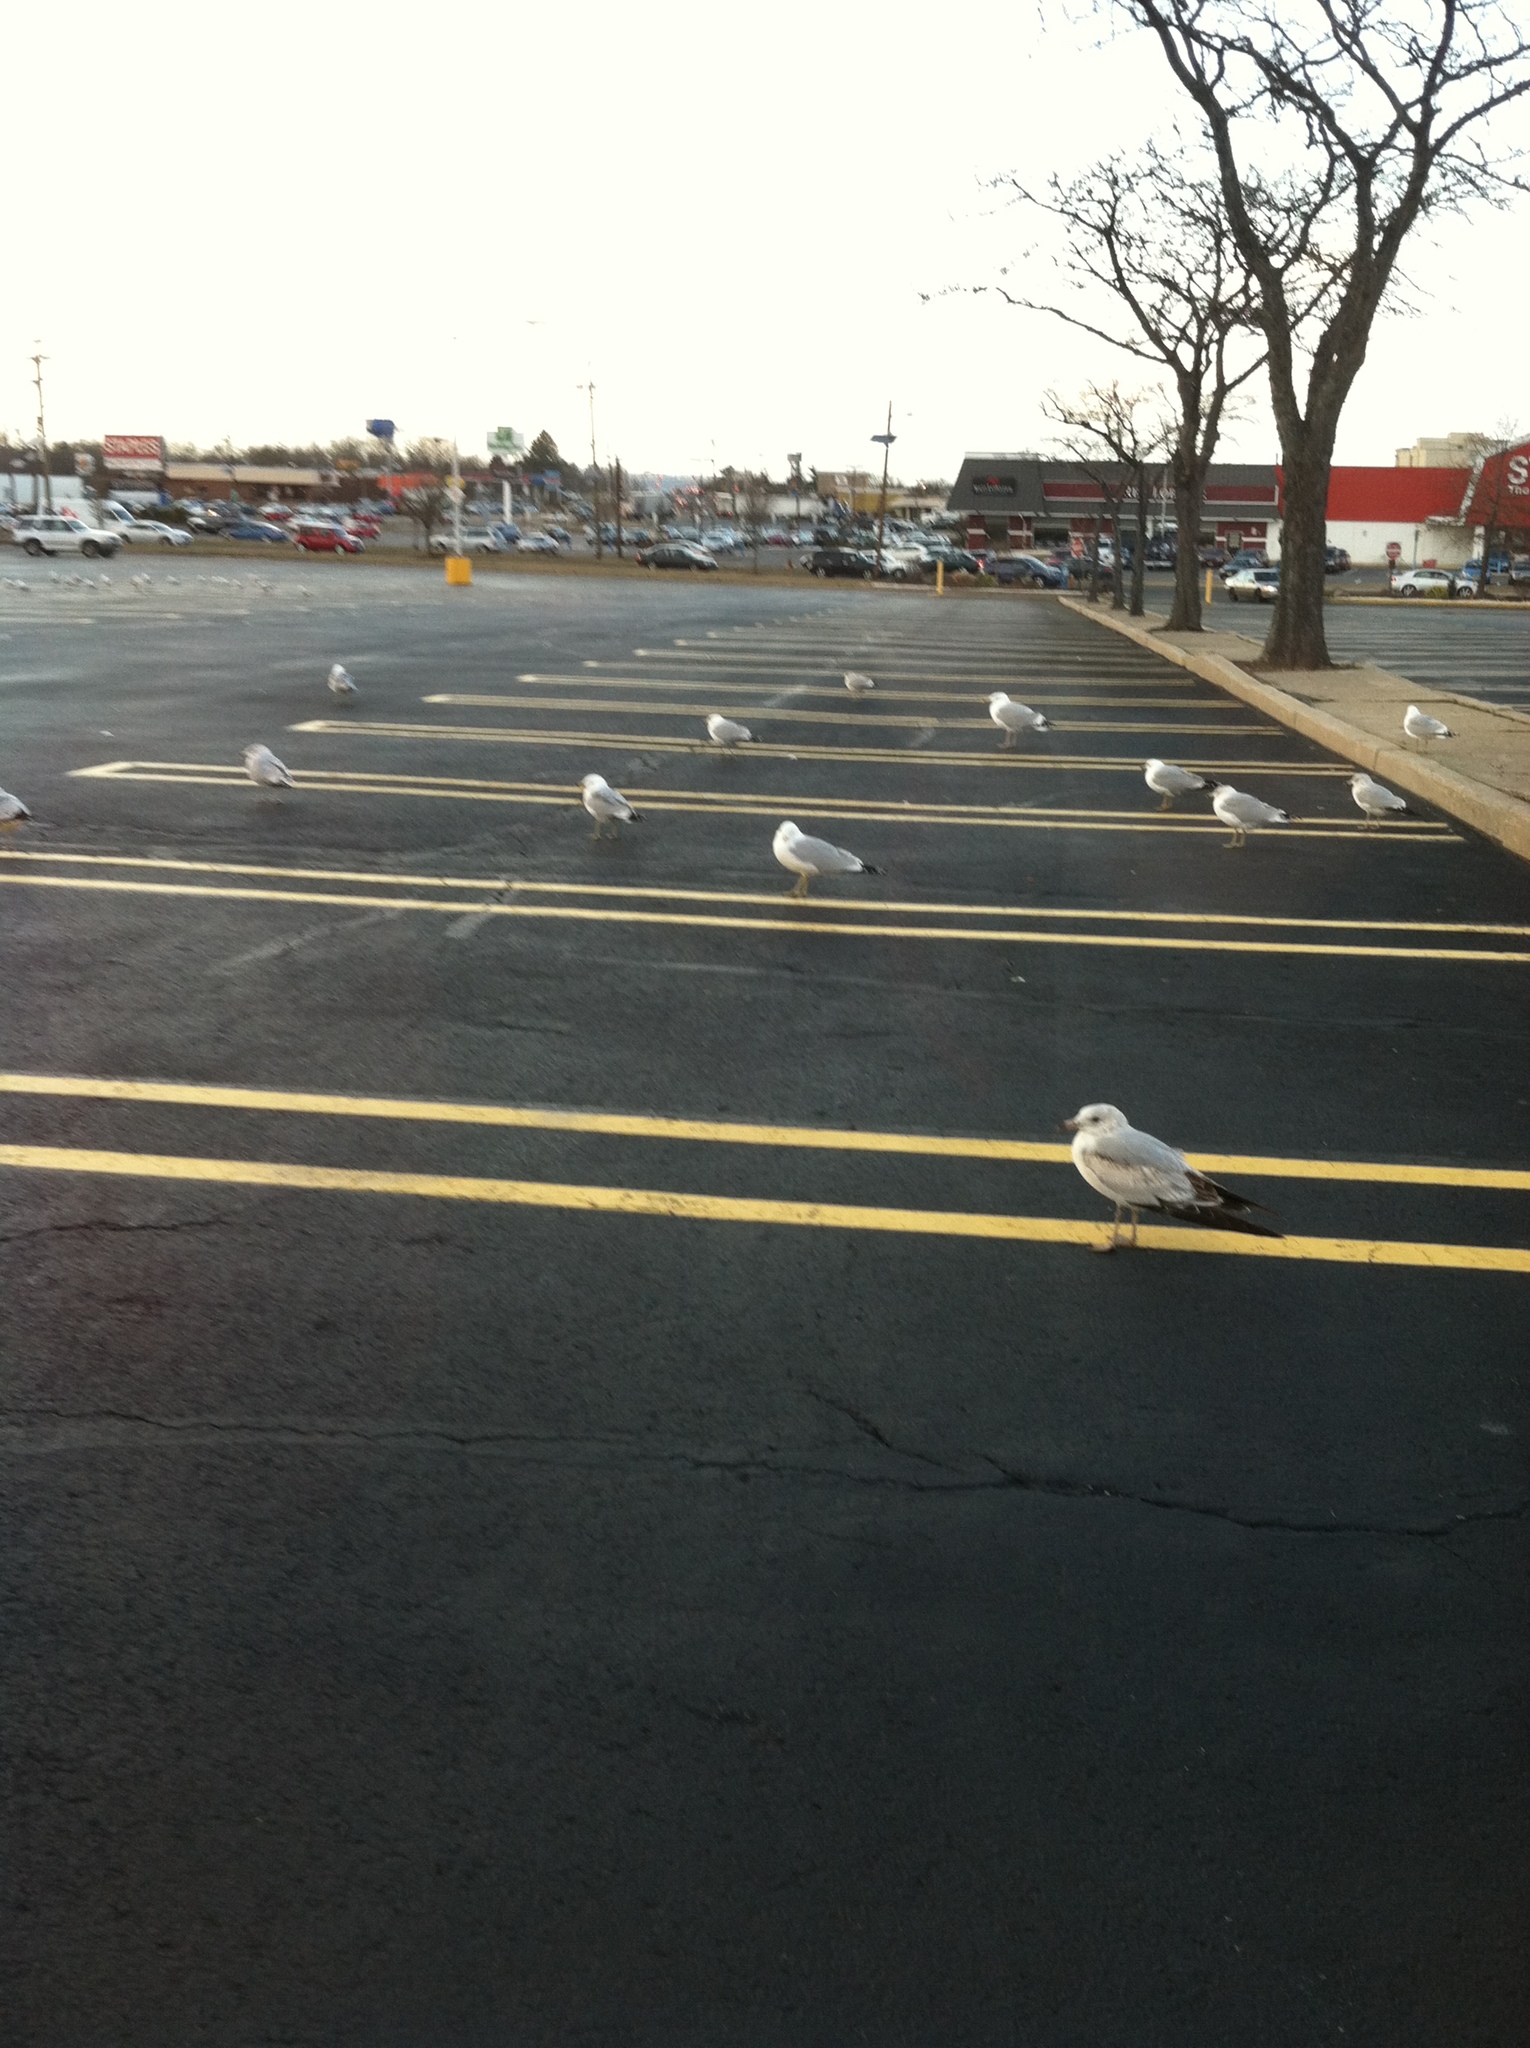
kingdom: Animalia
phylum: Chordata
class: Aves
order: Charadriiformes
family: Laridae
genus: Larus
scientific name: Larus delawarensis
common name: Ring-billed gull
